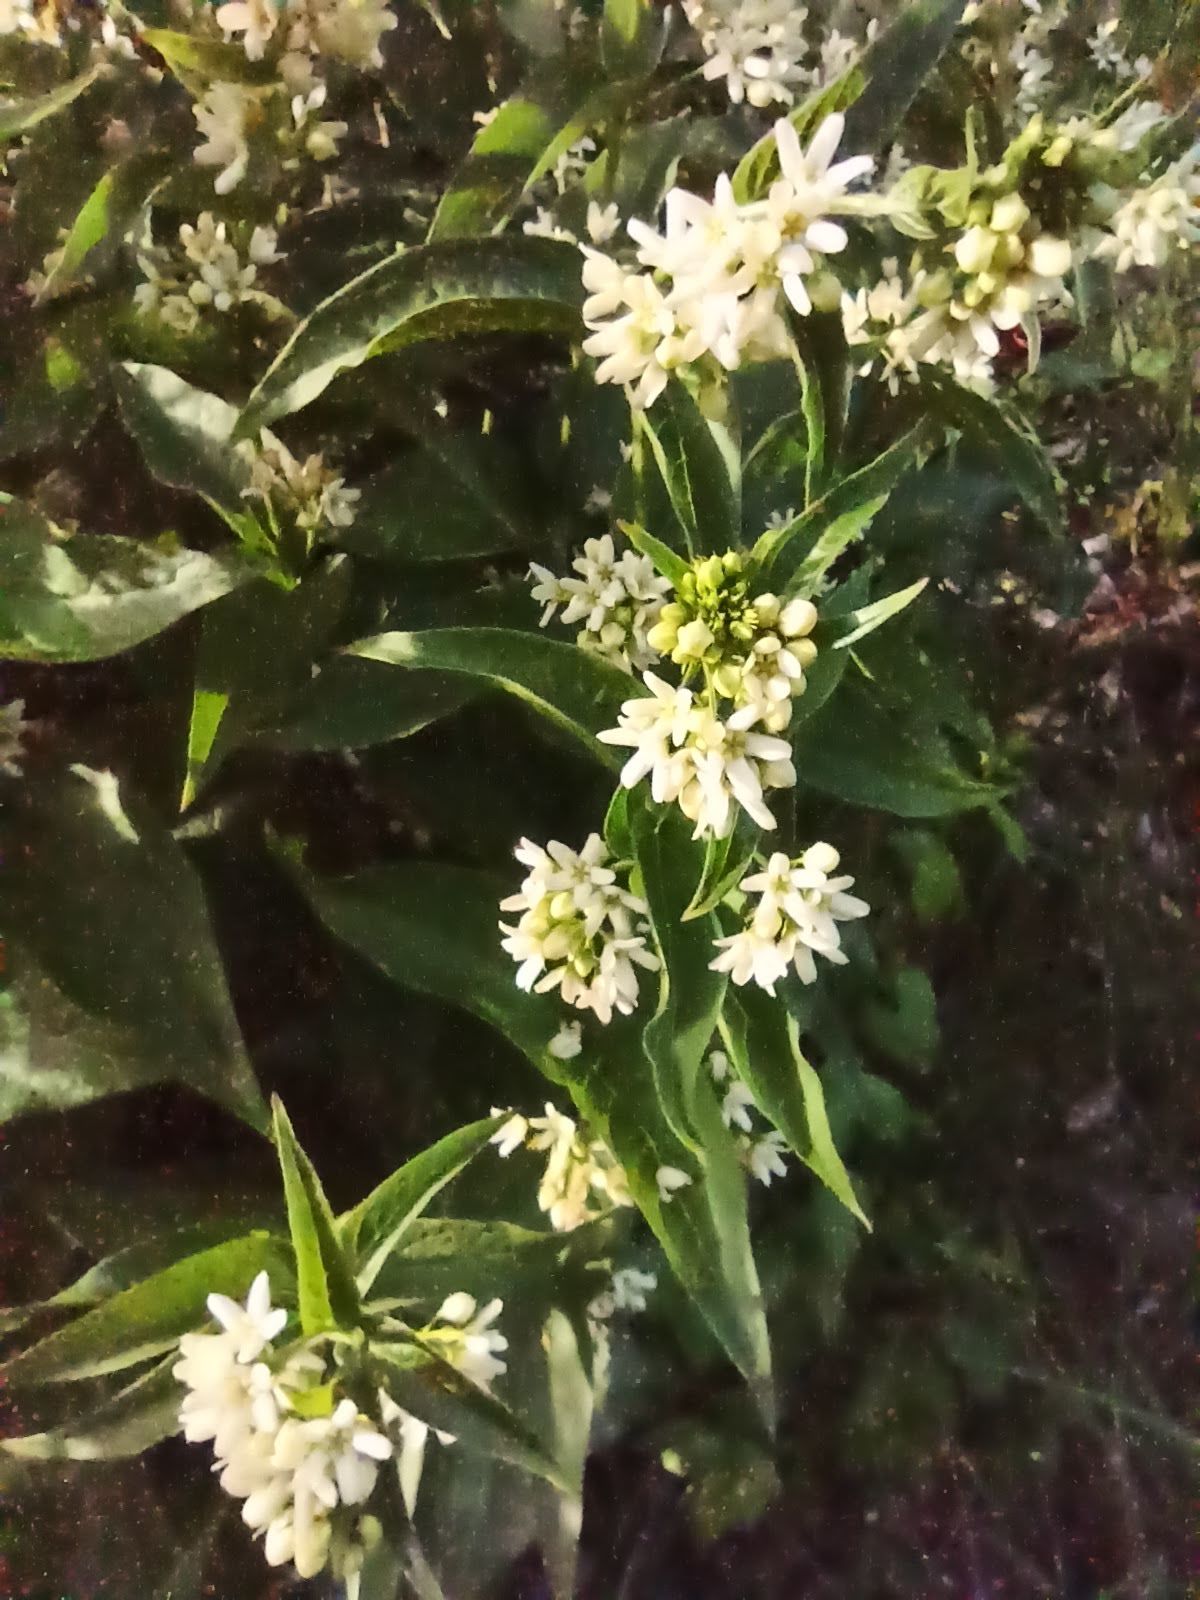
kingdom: Plantae
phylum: Tracheophyta
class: Magnoliopsida
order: Gentianales
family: Apocynaceae
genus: Vincetoxicum
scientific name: Vincetoxicum hirundinaria
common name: White swallowwort
